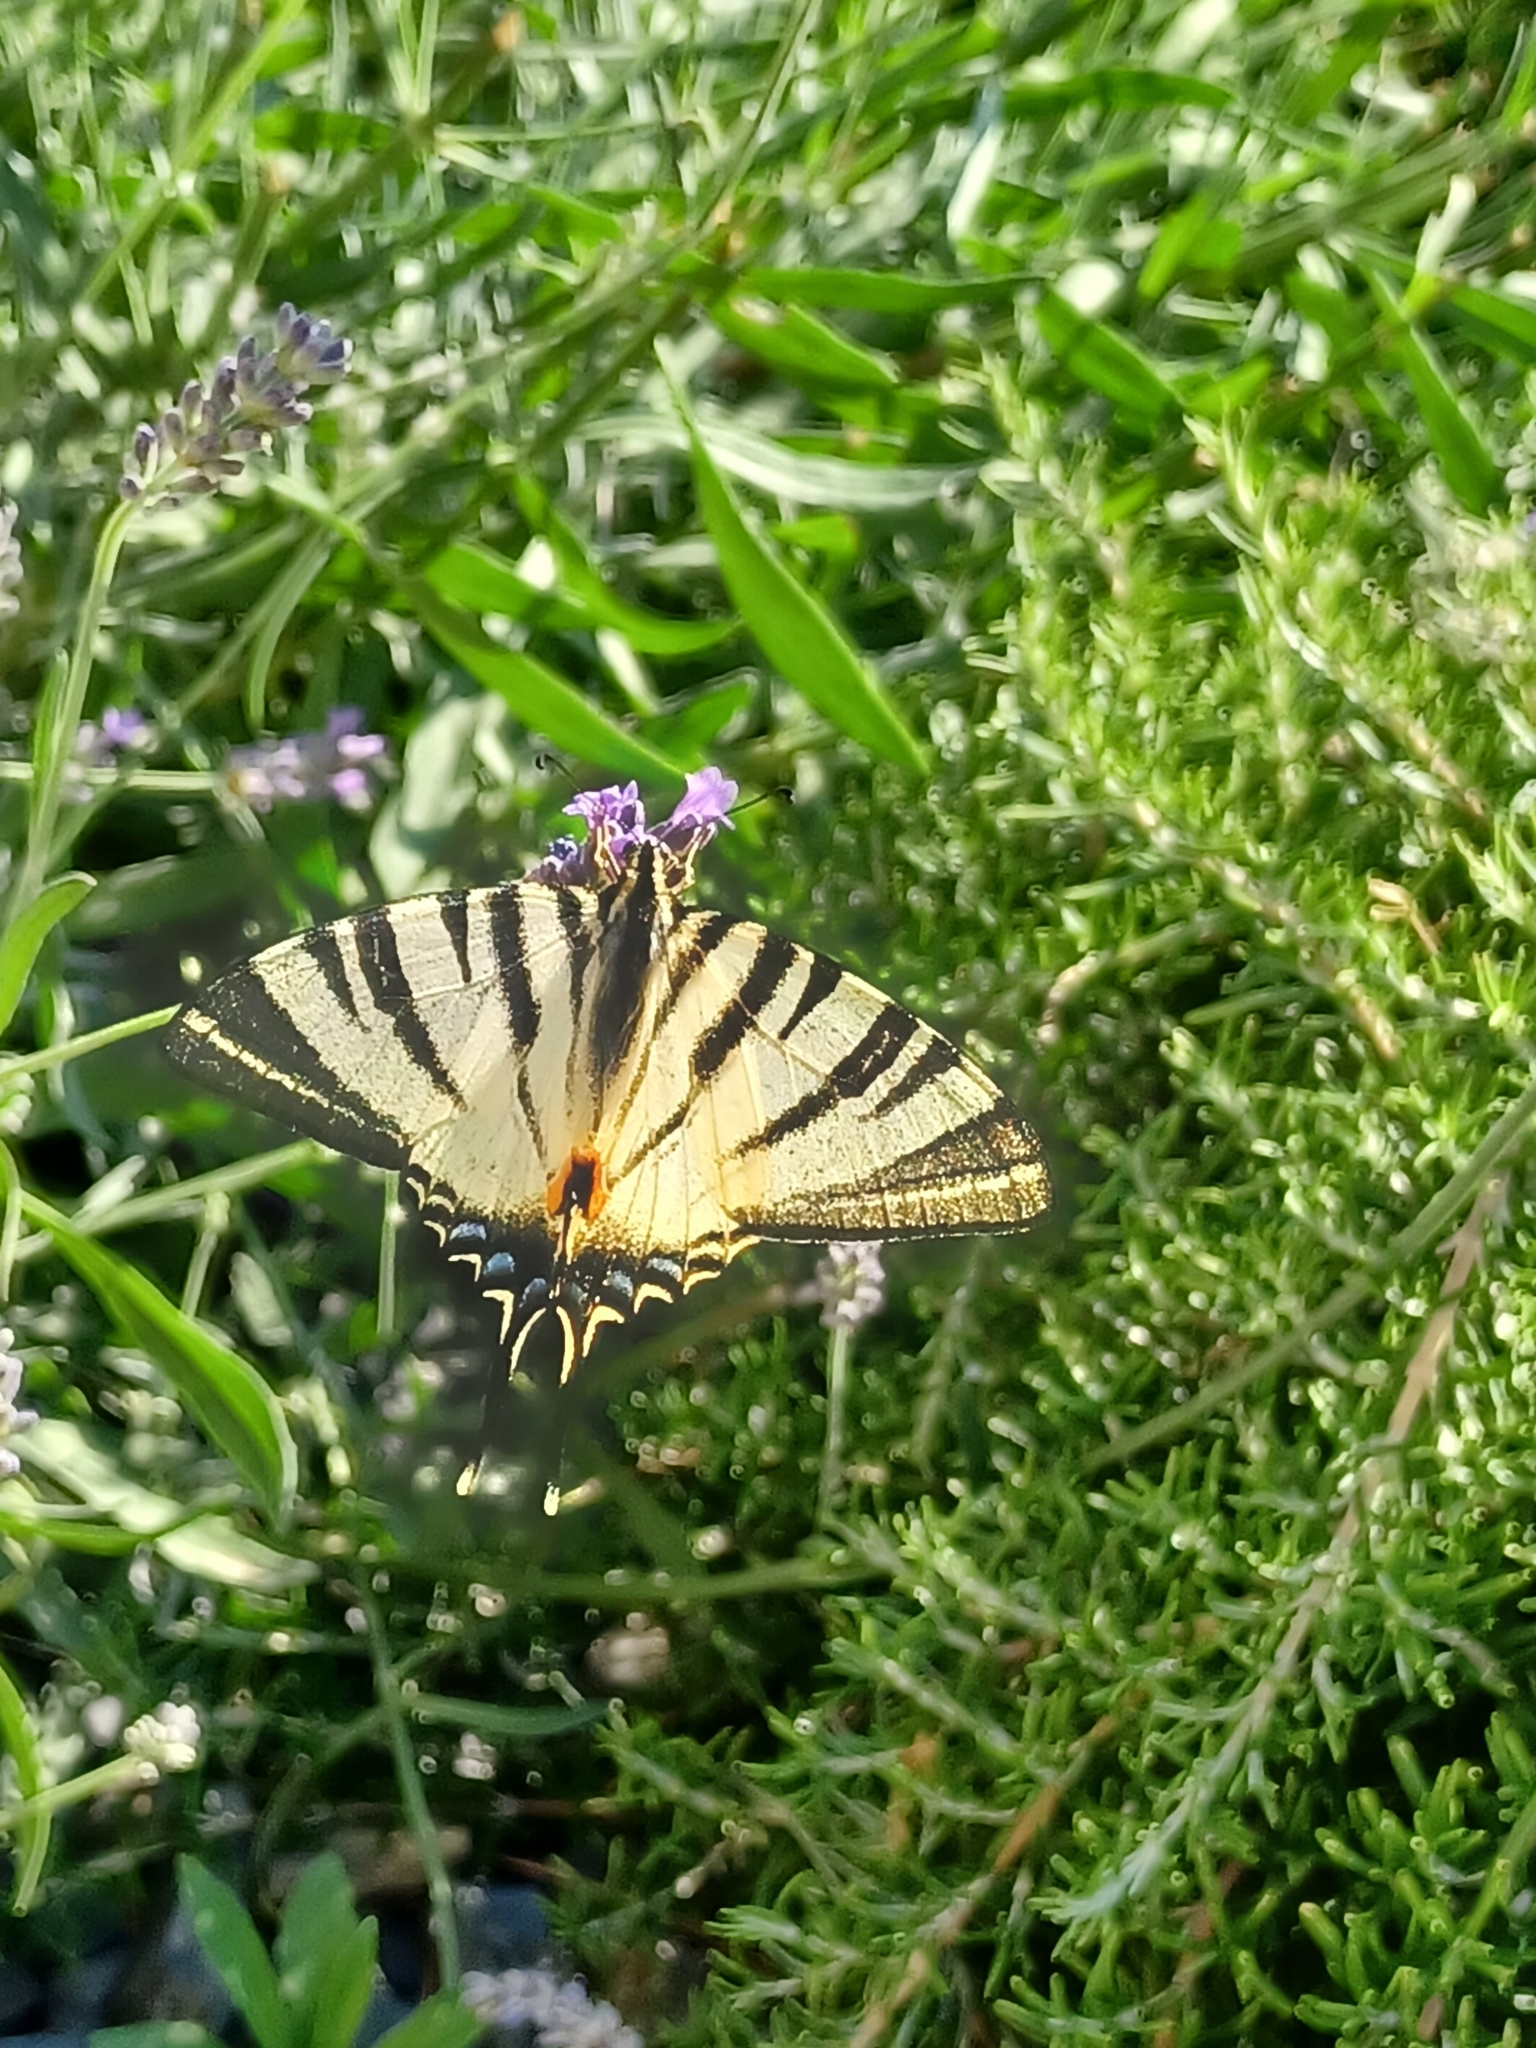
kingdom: Animalia
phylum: Arthropoda
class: Insecta
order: Lepidoptera
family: Papilionidae
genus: Iphiclides
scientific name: Iphiclides podalirius
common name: Scarce swallowtail
